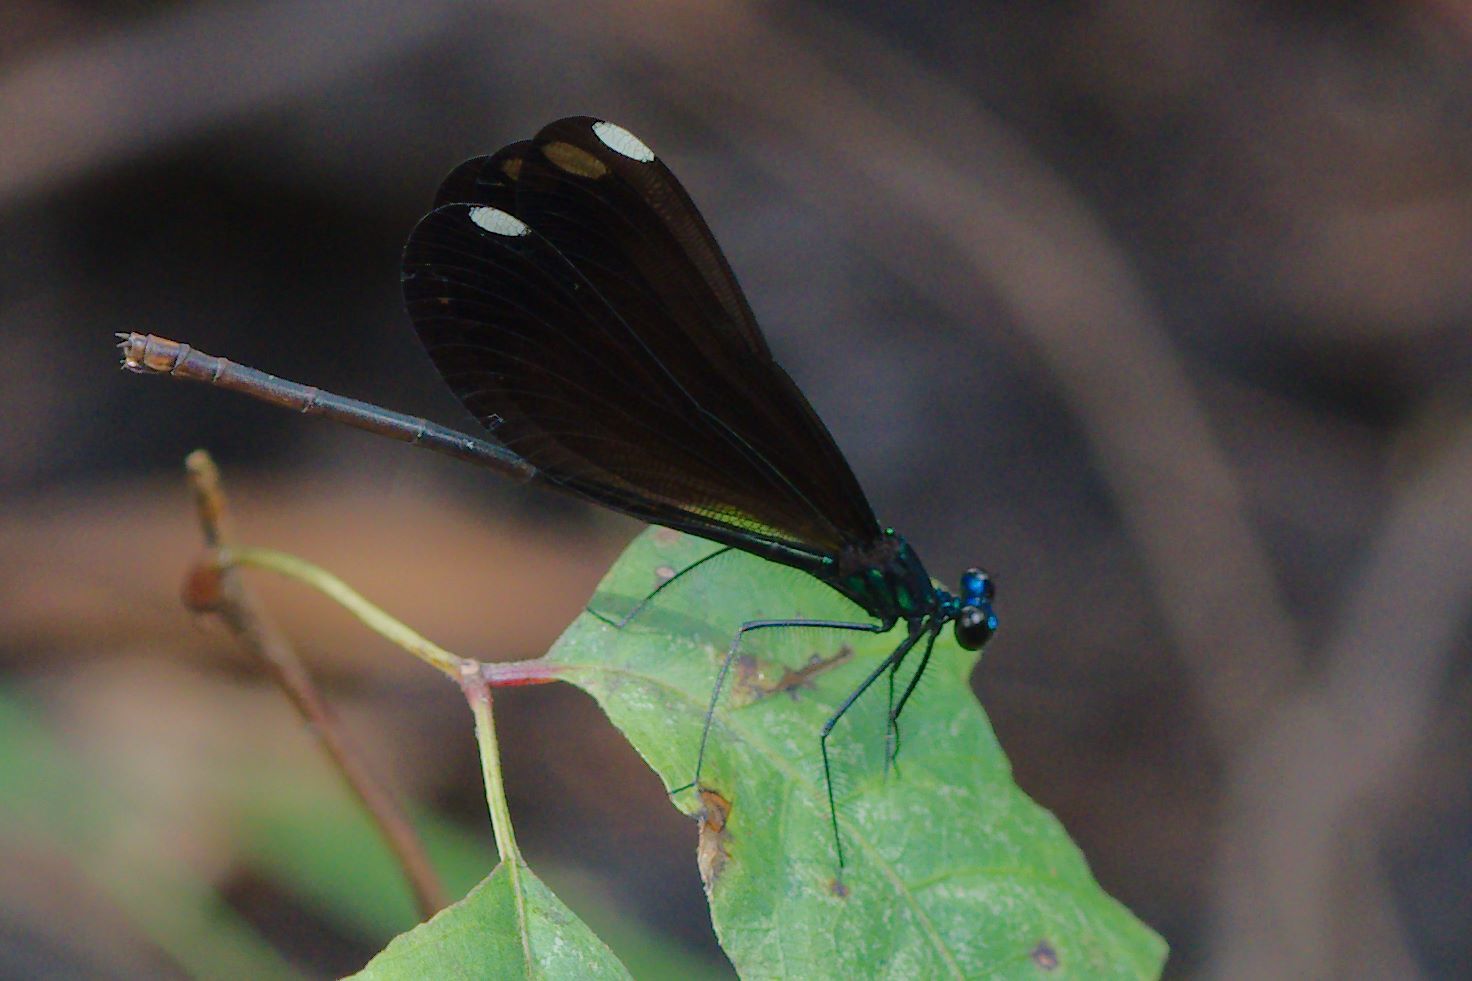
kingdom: Animalia
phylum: Arthropoda
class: Insecta
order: Odonata
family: Calopterygidae
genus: Calopteryx
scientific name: Calopteryx maculata
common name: Ebony jewelwing
